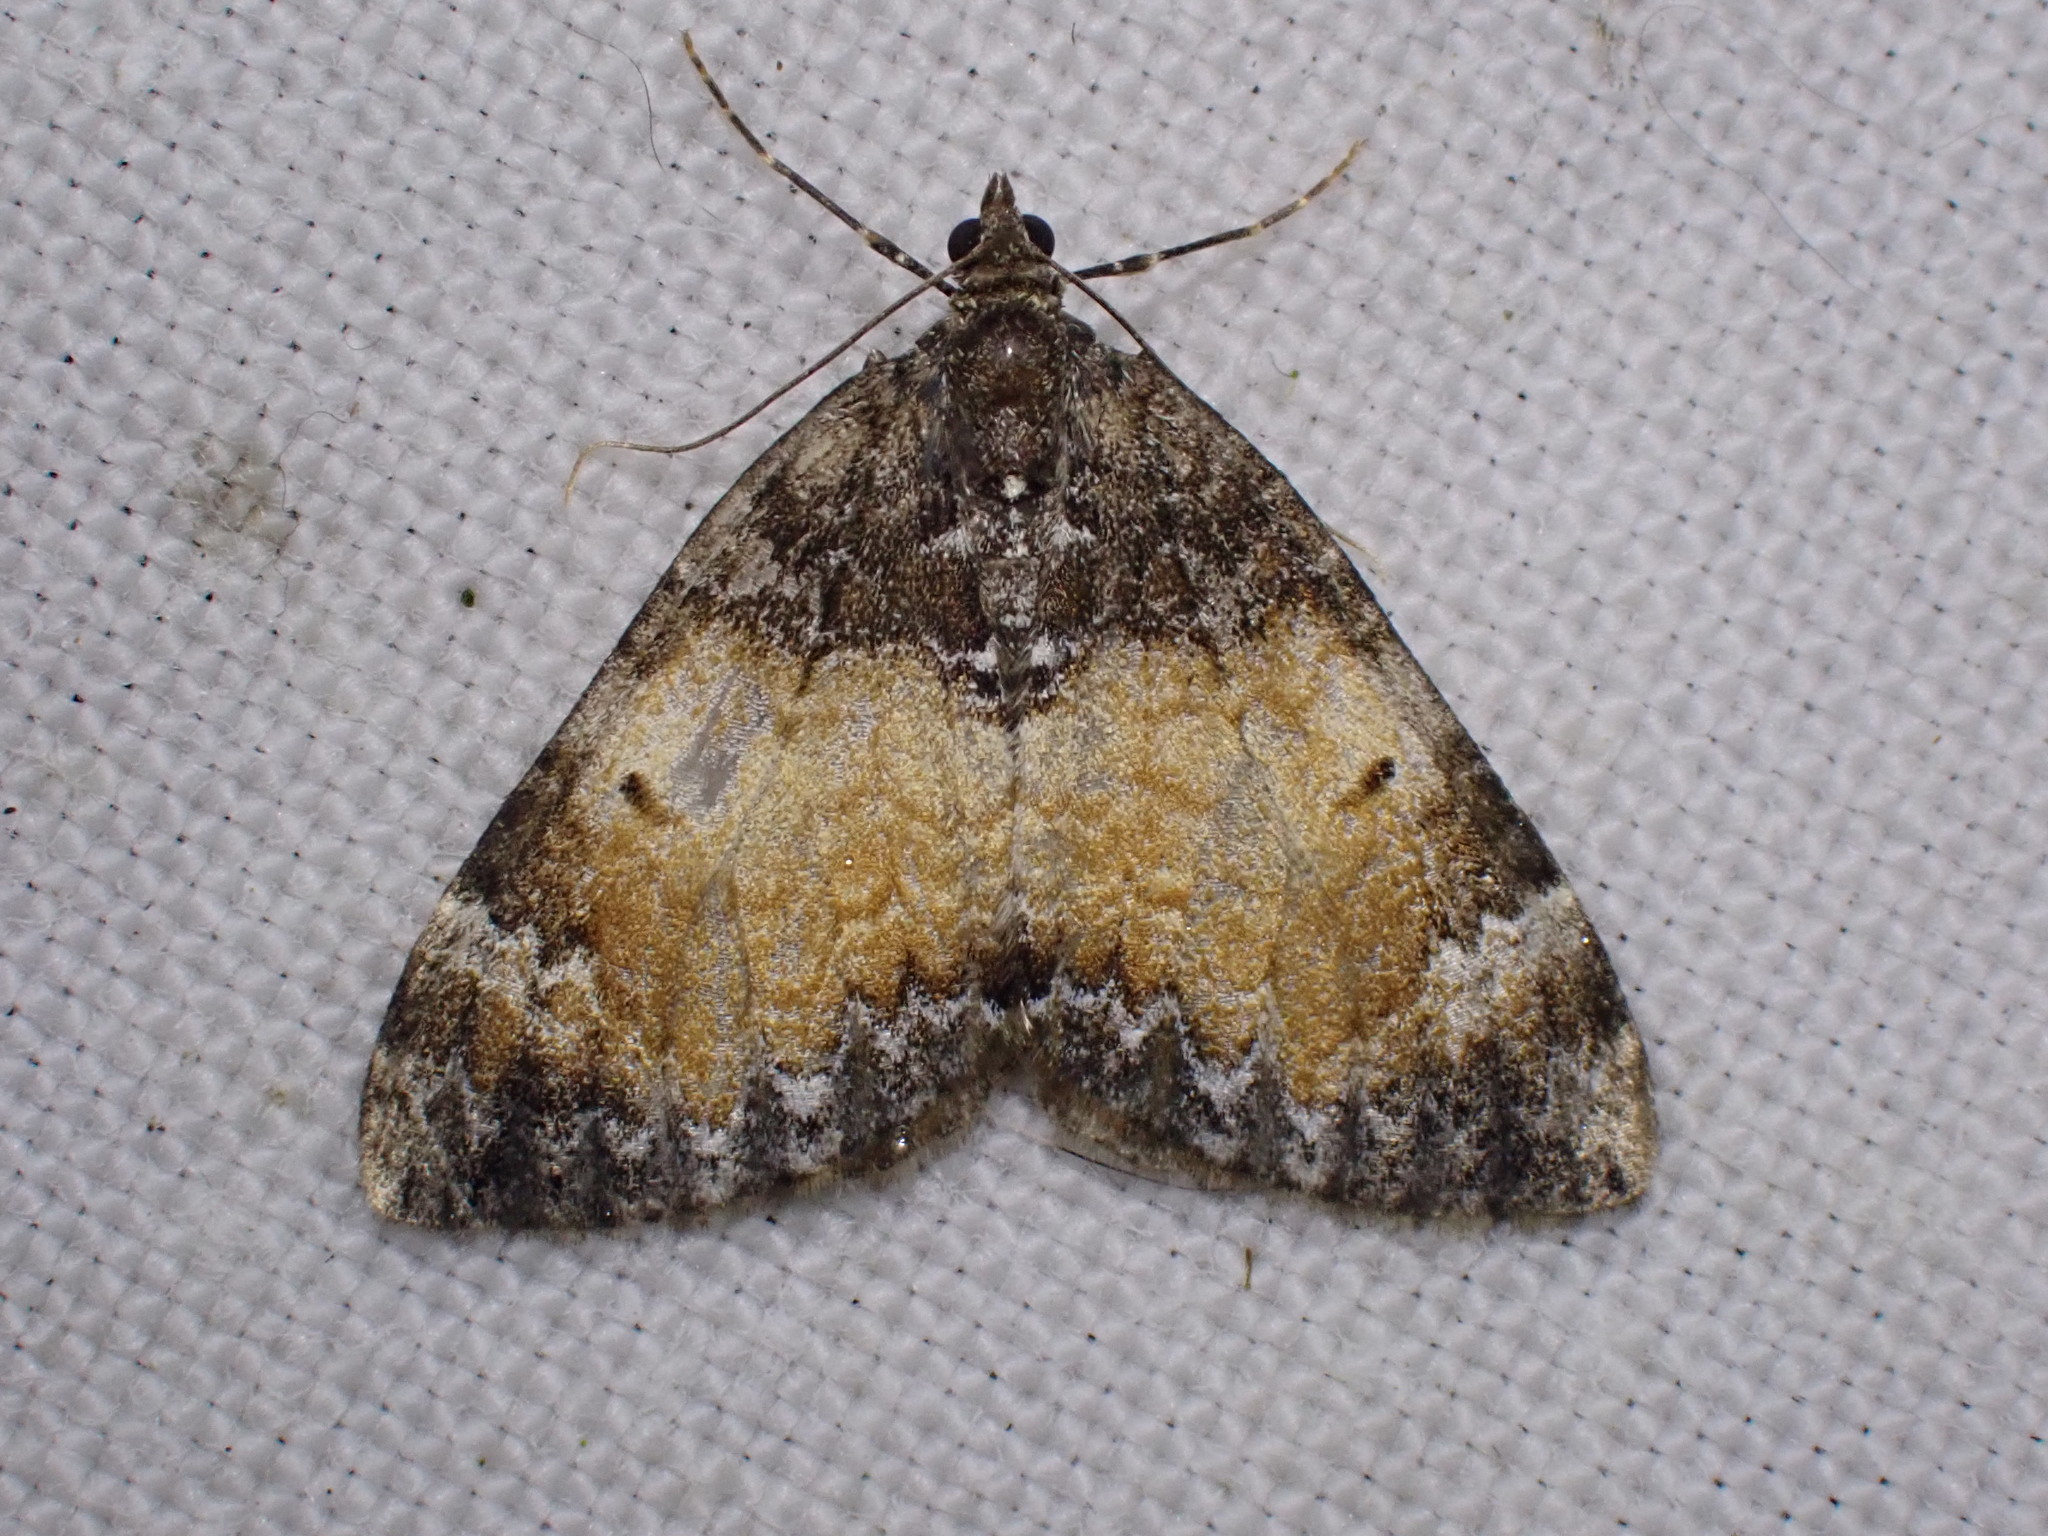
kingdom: Animalia
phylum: Arthropoda
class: Insecta
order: Lepidoptera
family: Geometridae
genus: Dysstroma
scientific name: Dysstroma truncata
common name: Common marbled carpet
